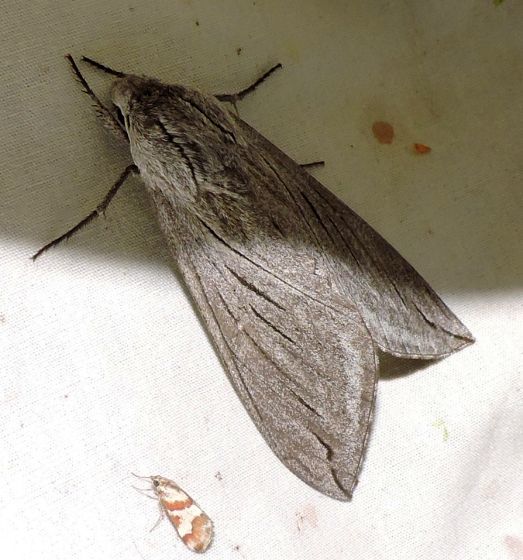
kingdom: Animalia
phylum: Arthropoda
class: Insecta
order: Lepidoptera
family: Sphingidae
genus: Sphinx
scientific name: Sphinx chersis
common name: Great ash sphinx
